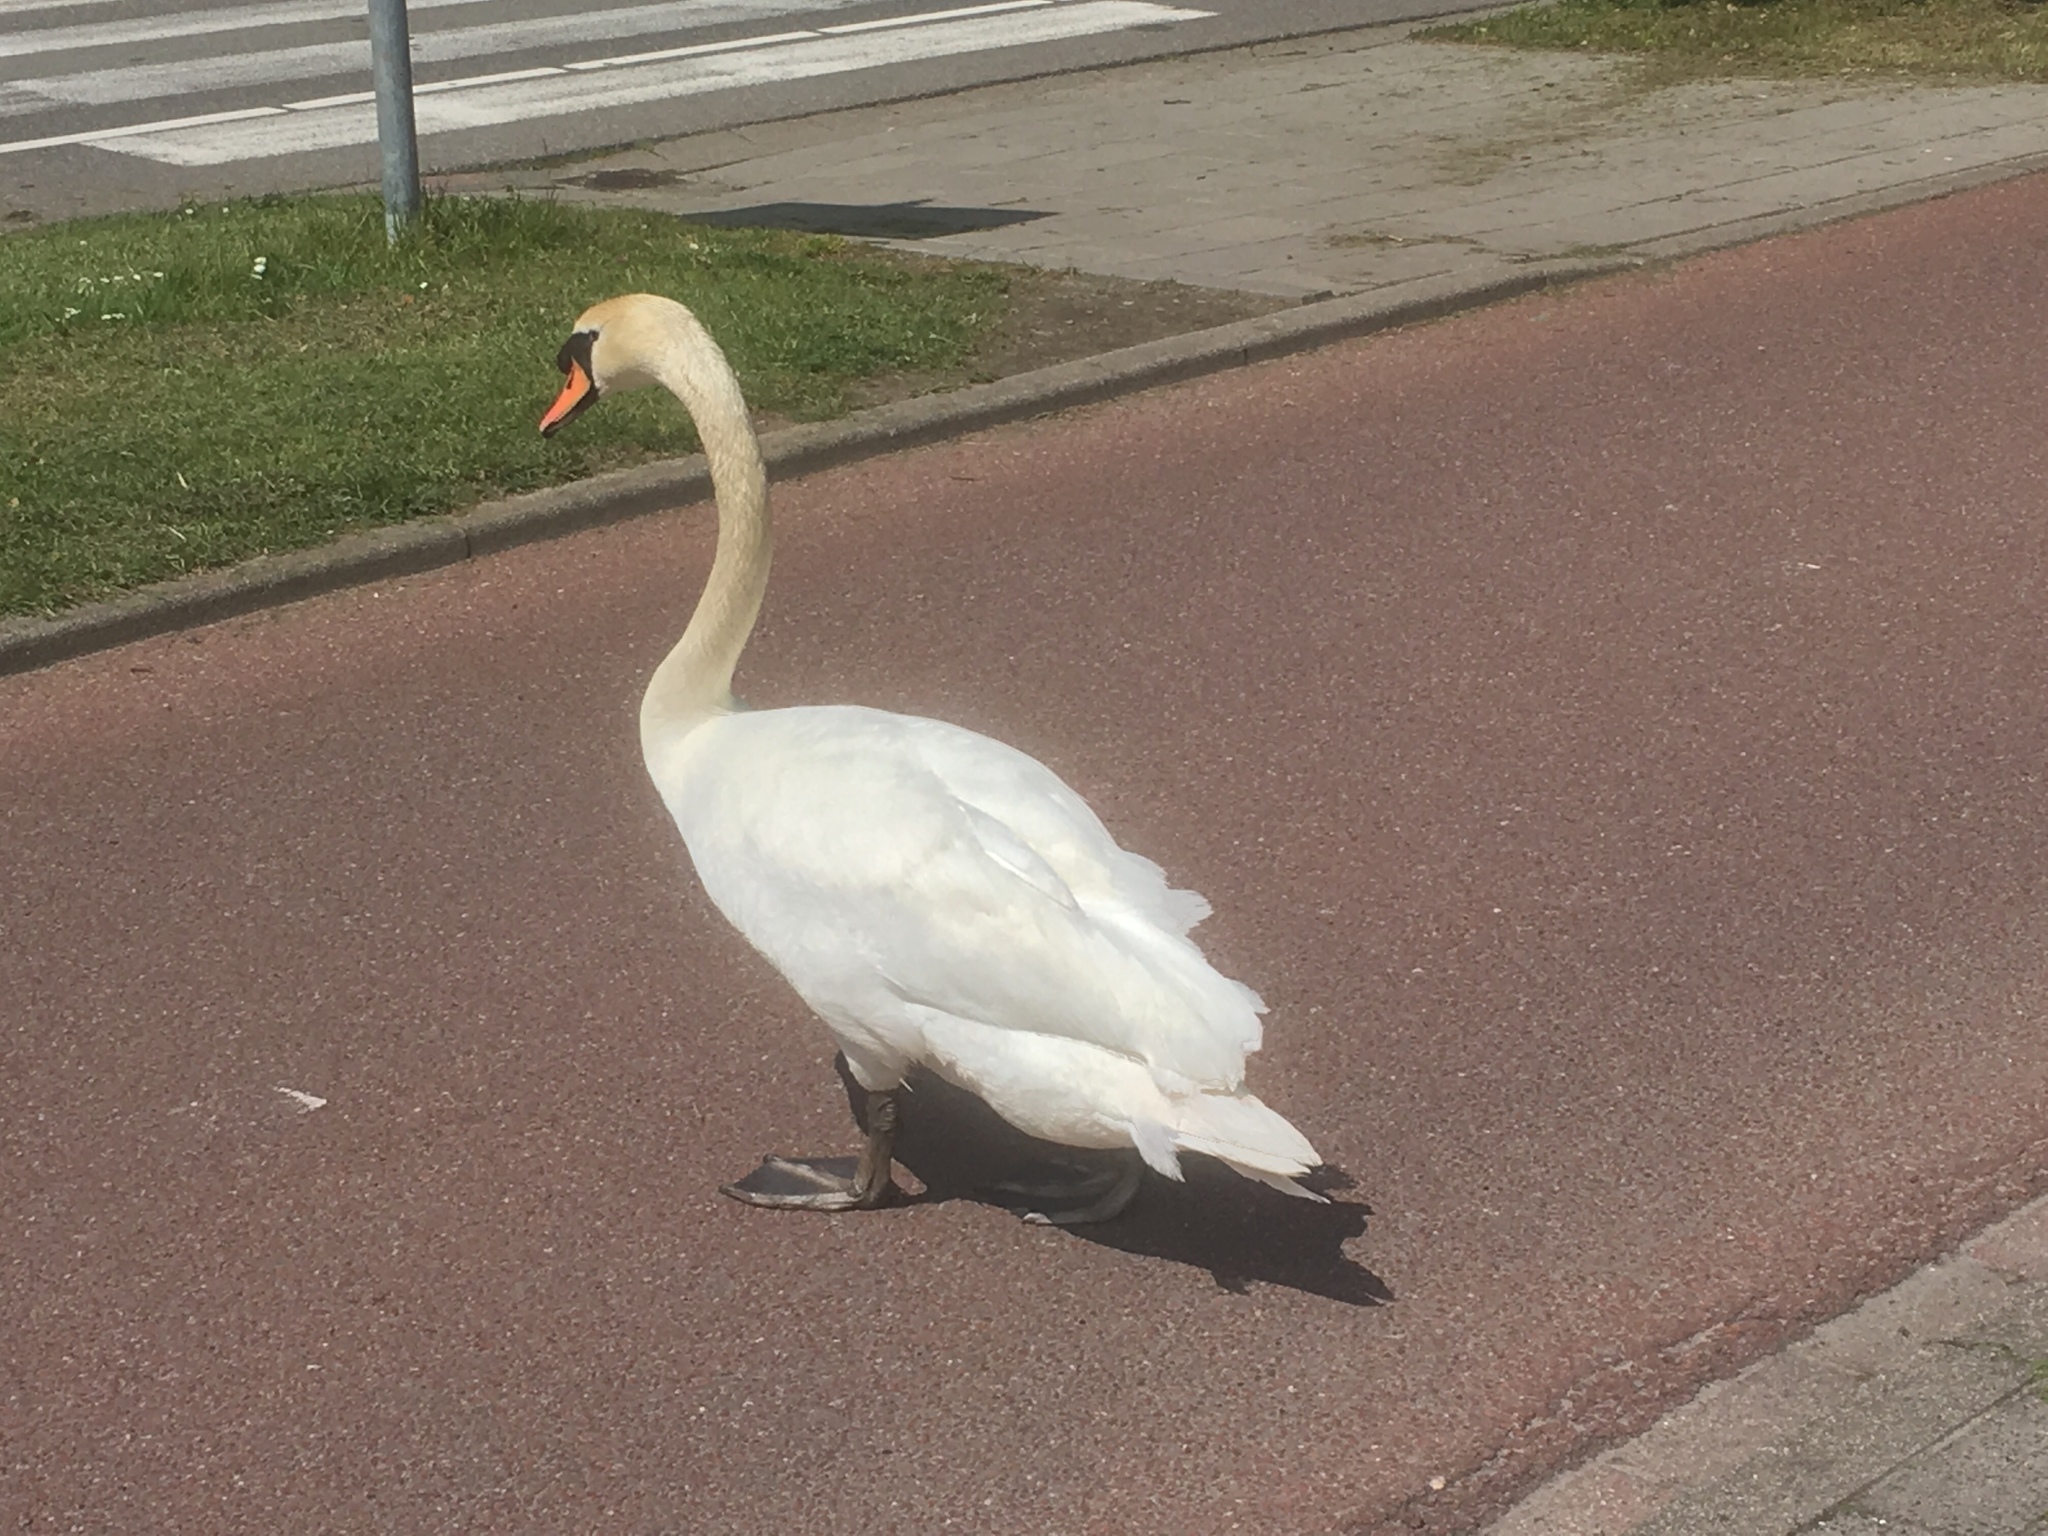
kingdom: Animalia
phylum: Chordata
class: Aves
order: Anseriformes
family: Anatidae
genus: Cygnus
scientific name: Cygnus olor
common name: Mute swan
